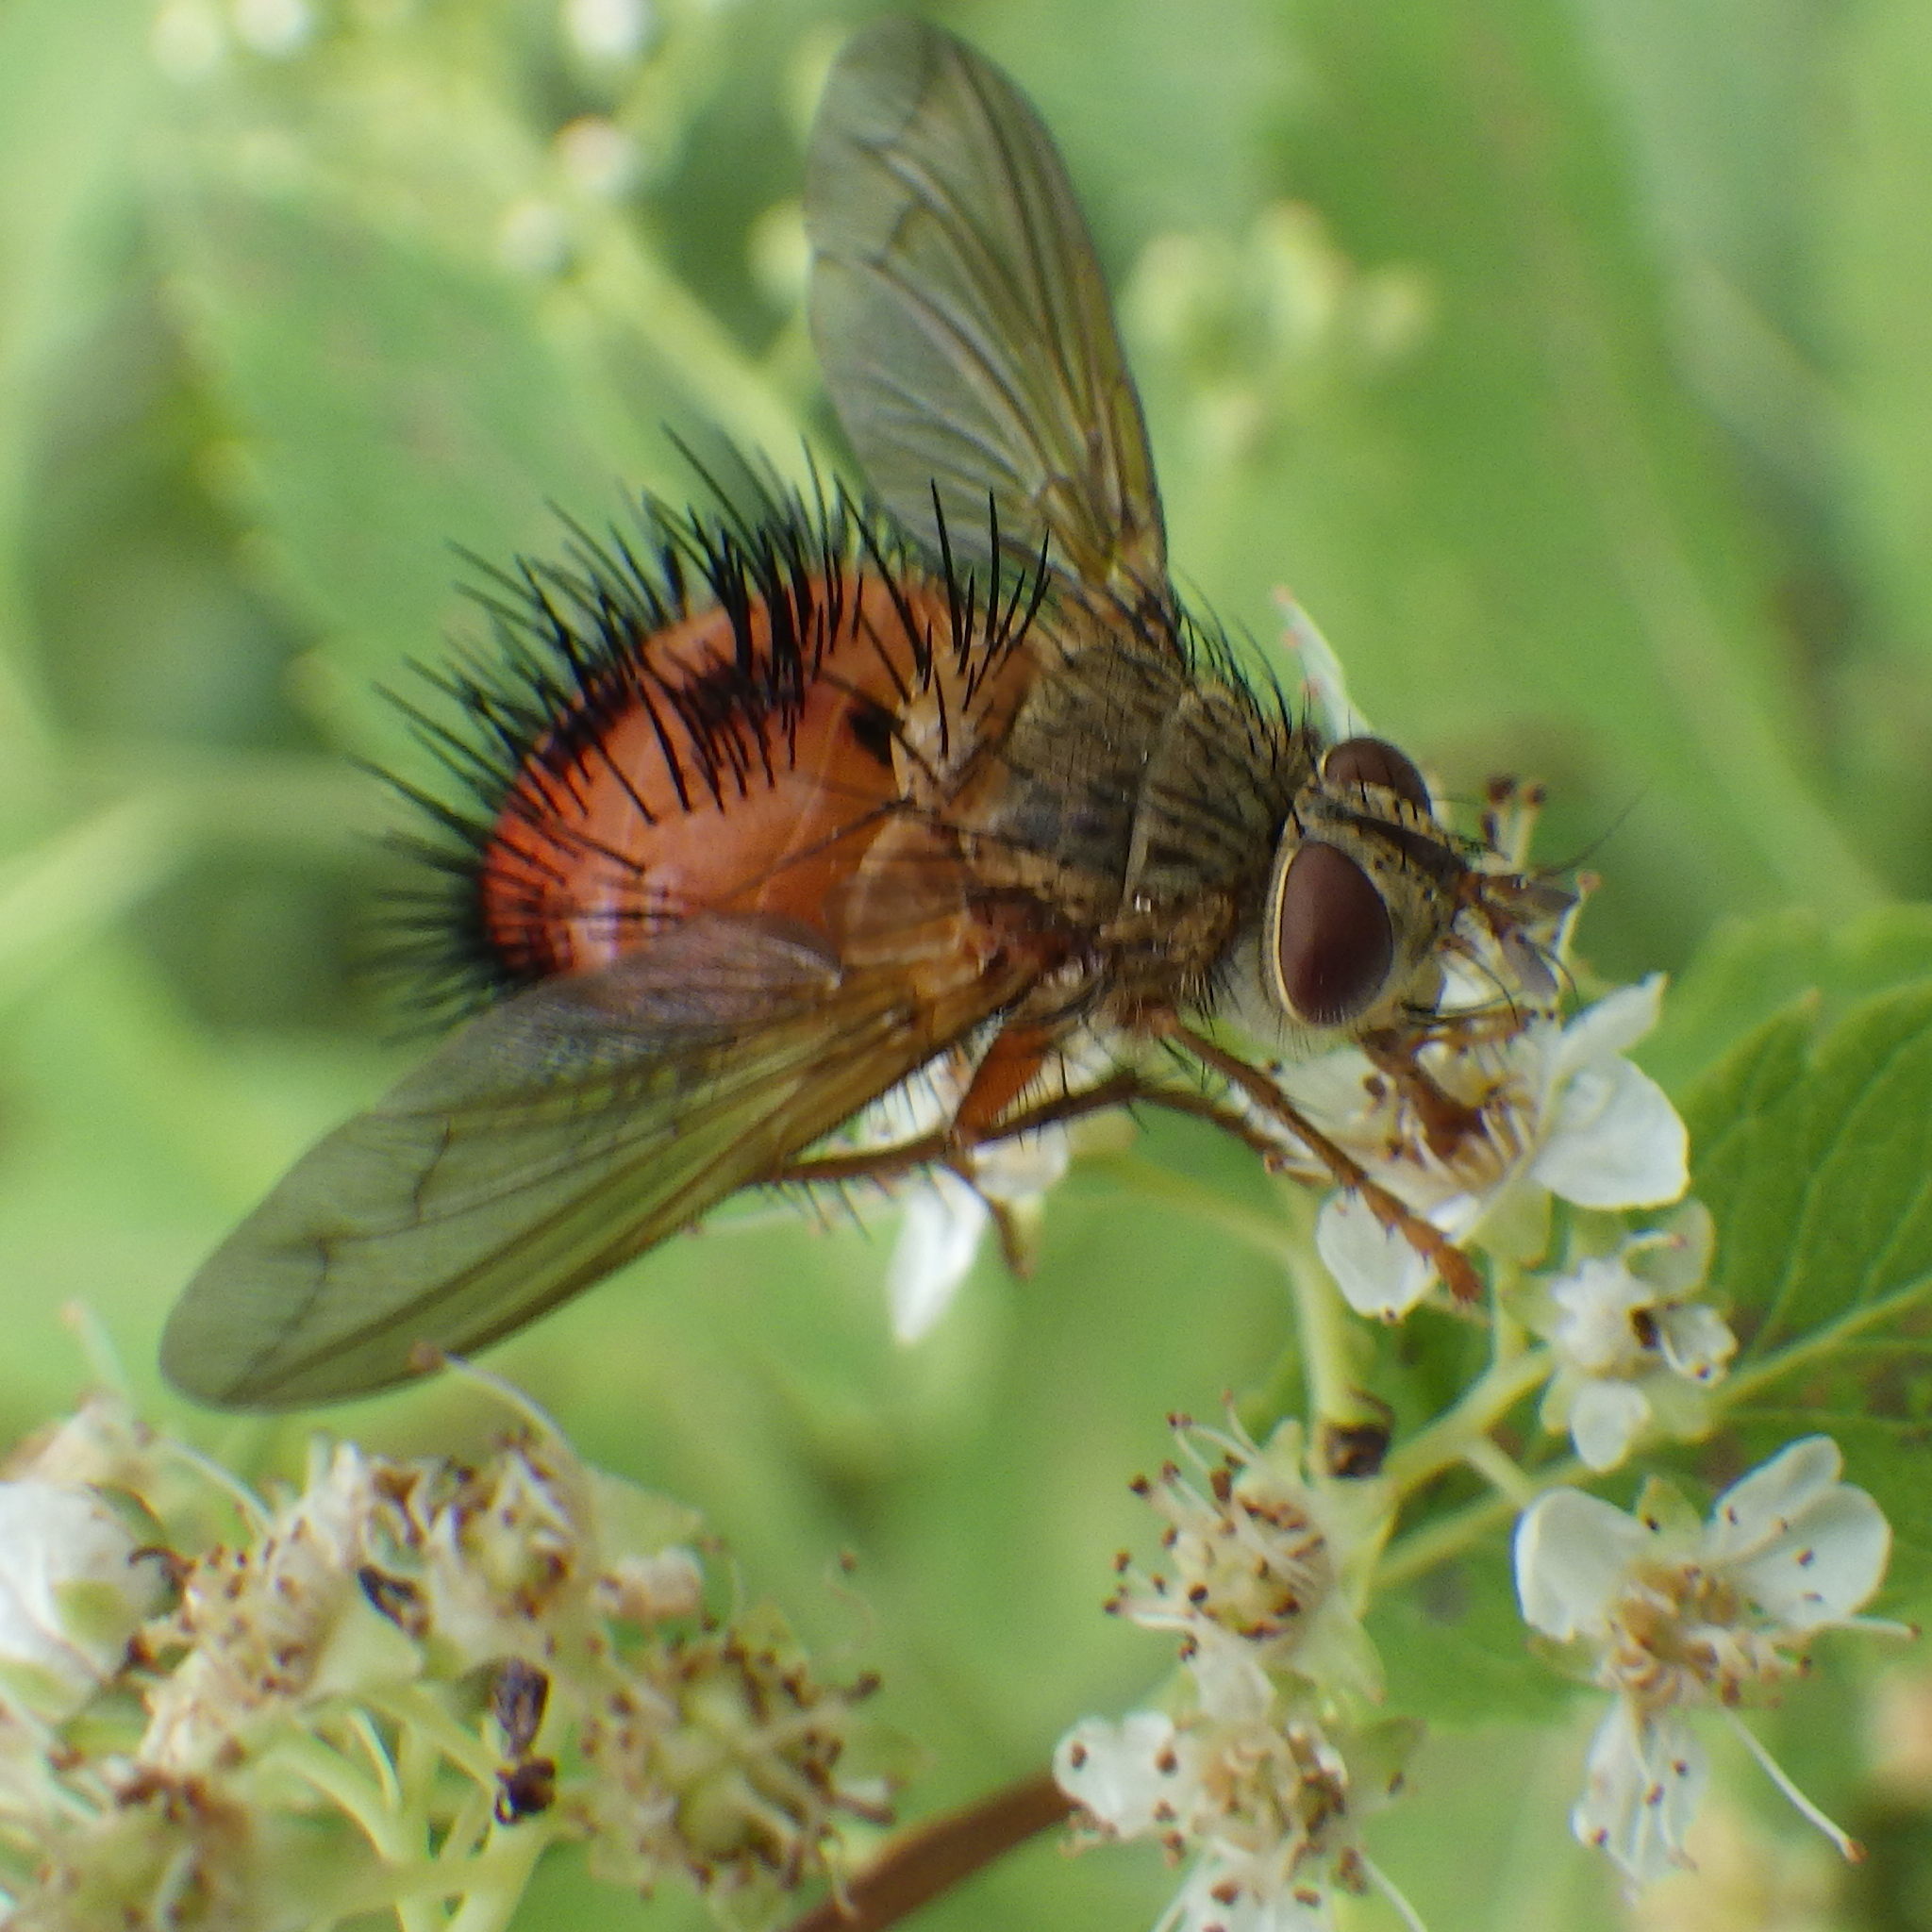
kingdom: Animalia
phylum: Arthropoda
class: Insecta
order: Diptera
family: Tachinidae
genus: Hystricia
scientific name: Hystricia abrupta
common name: Tomato bristle fly
